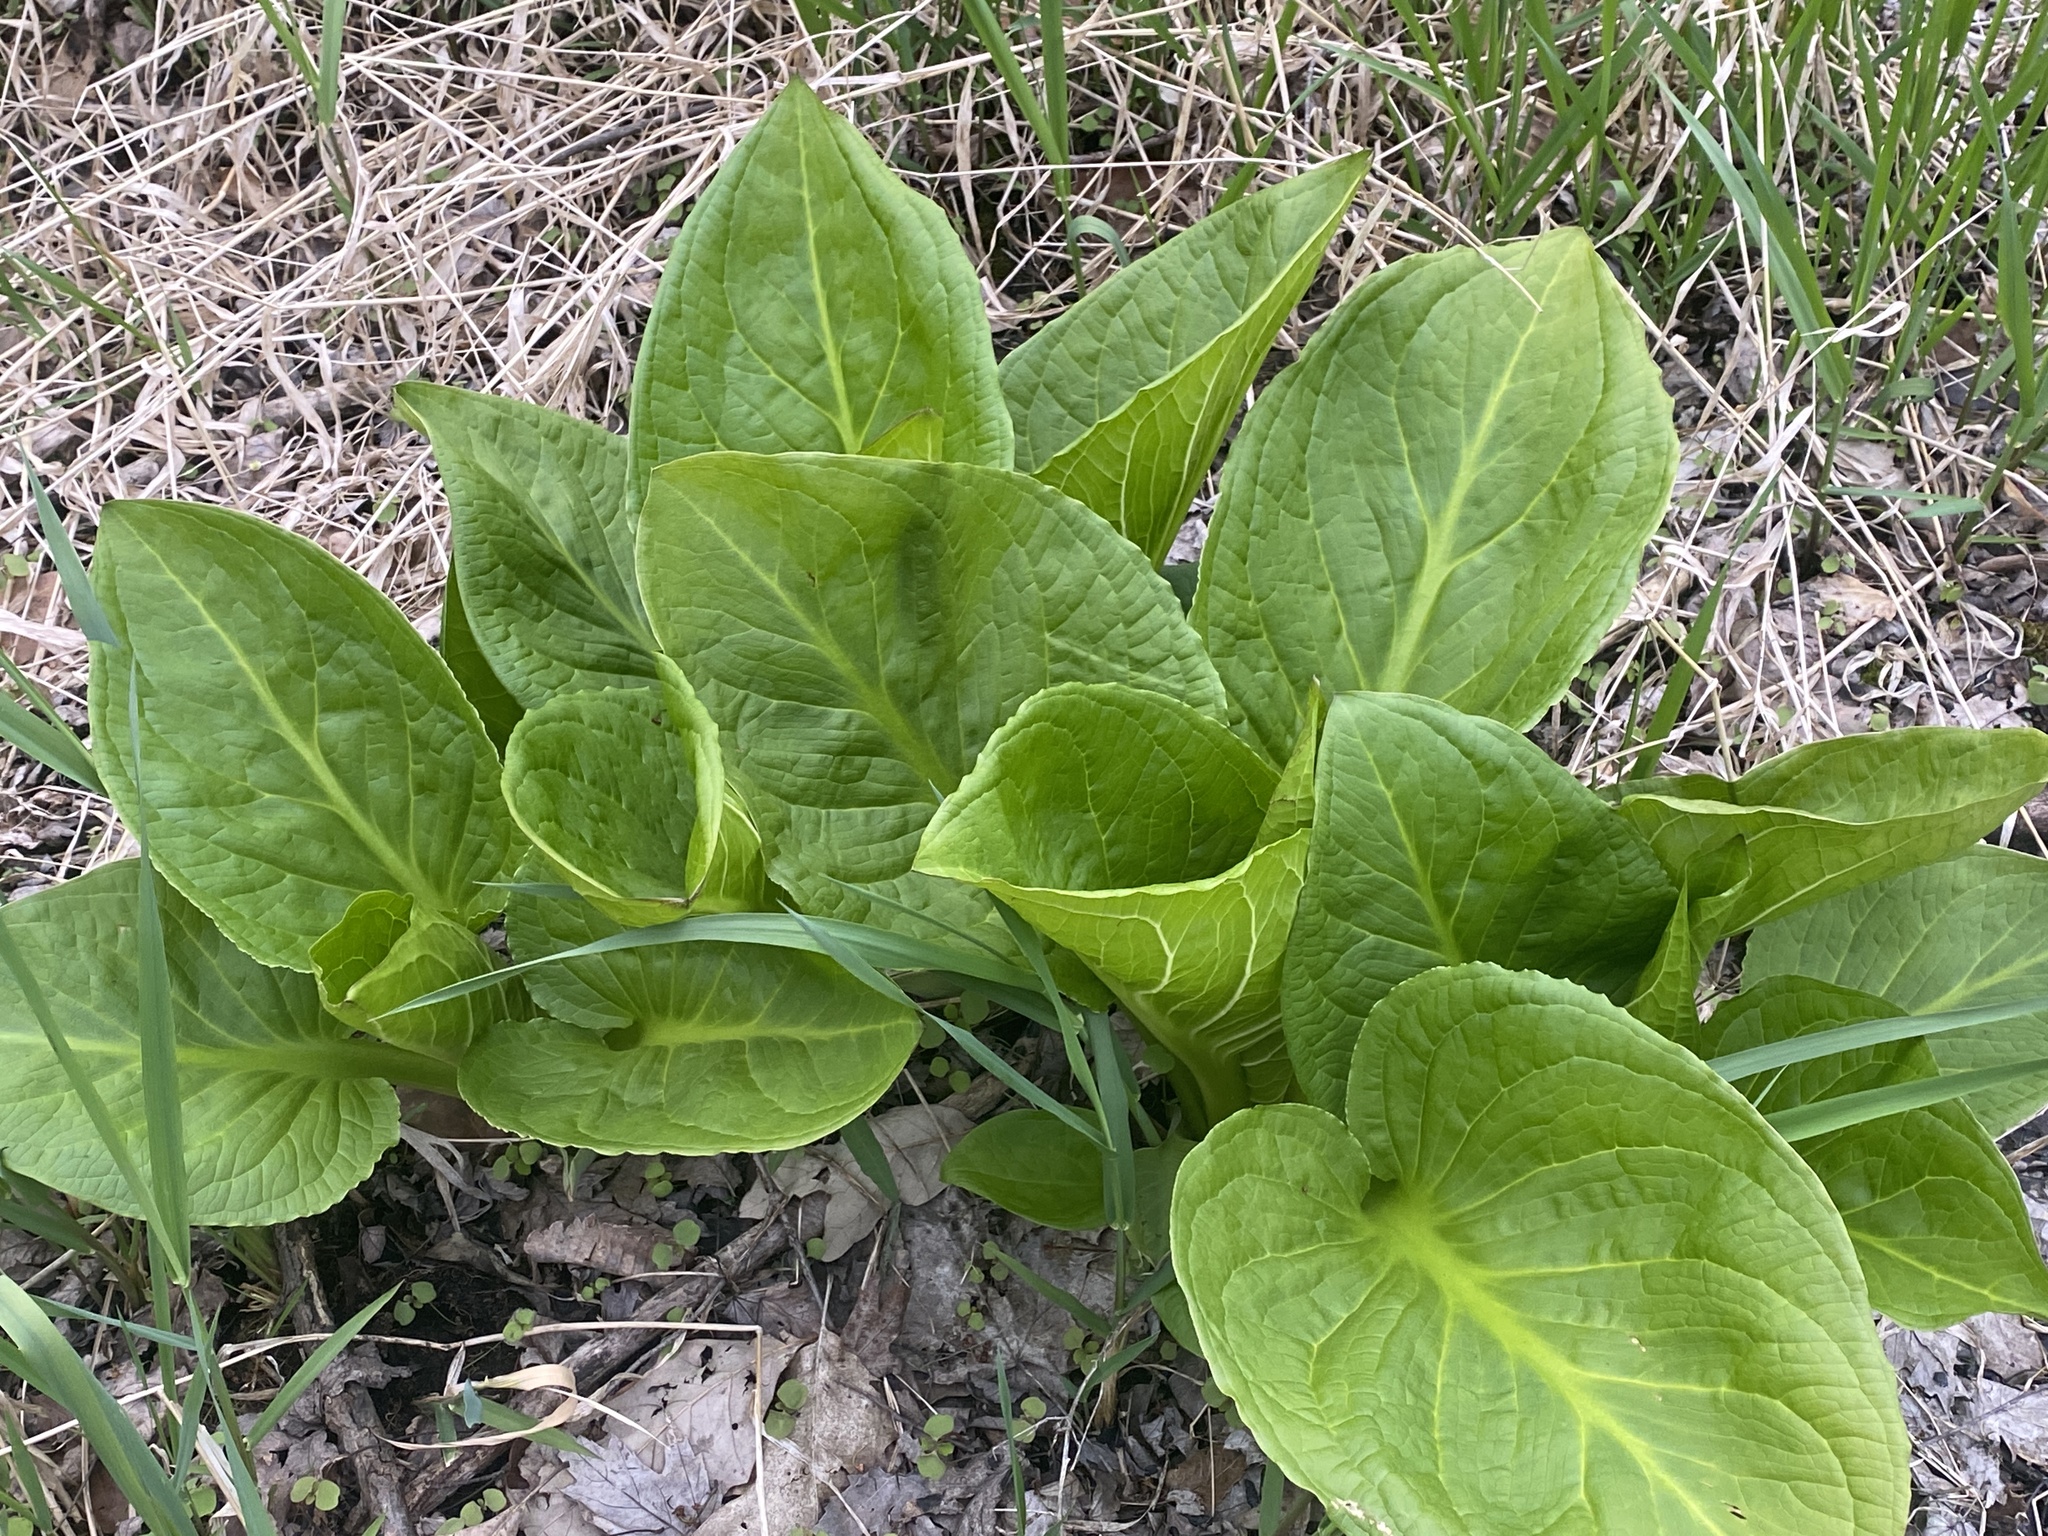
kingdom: Plantae
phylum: Tracheophyta
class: Liliopsida
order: Alismatales
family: Araceae
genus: Symplocarpus
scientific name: Symplocarpus foetidus
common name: Eastern skunk cabbage
